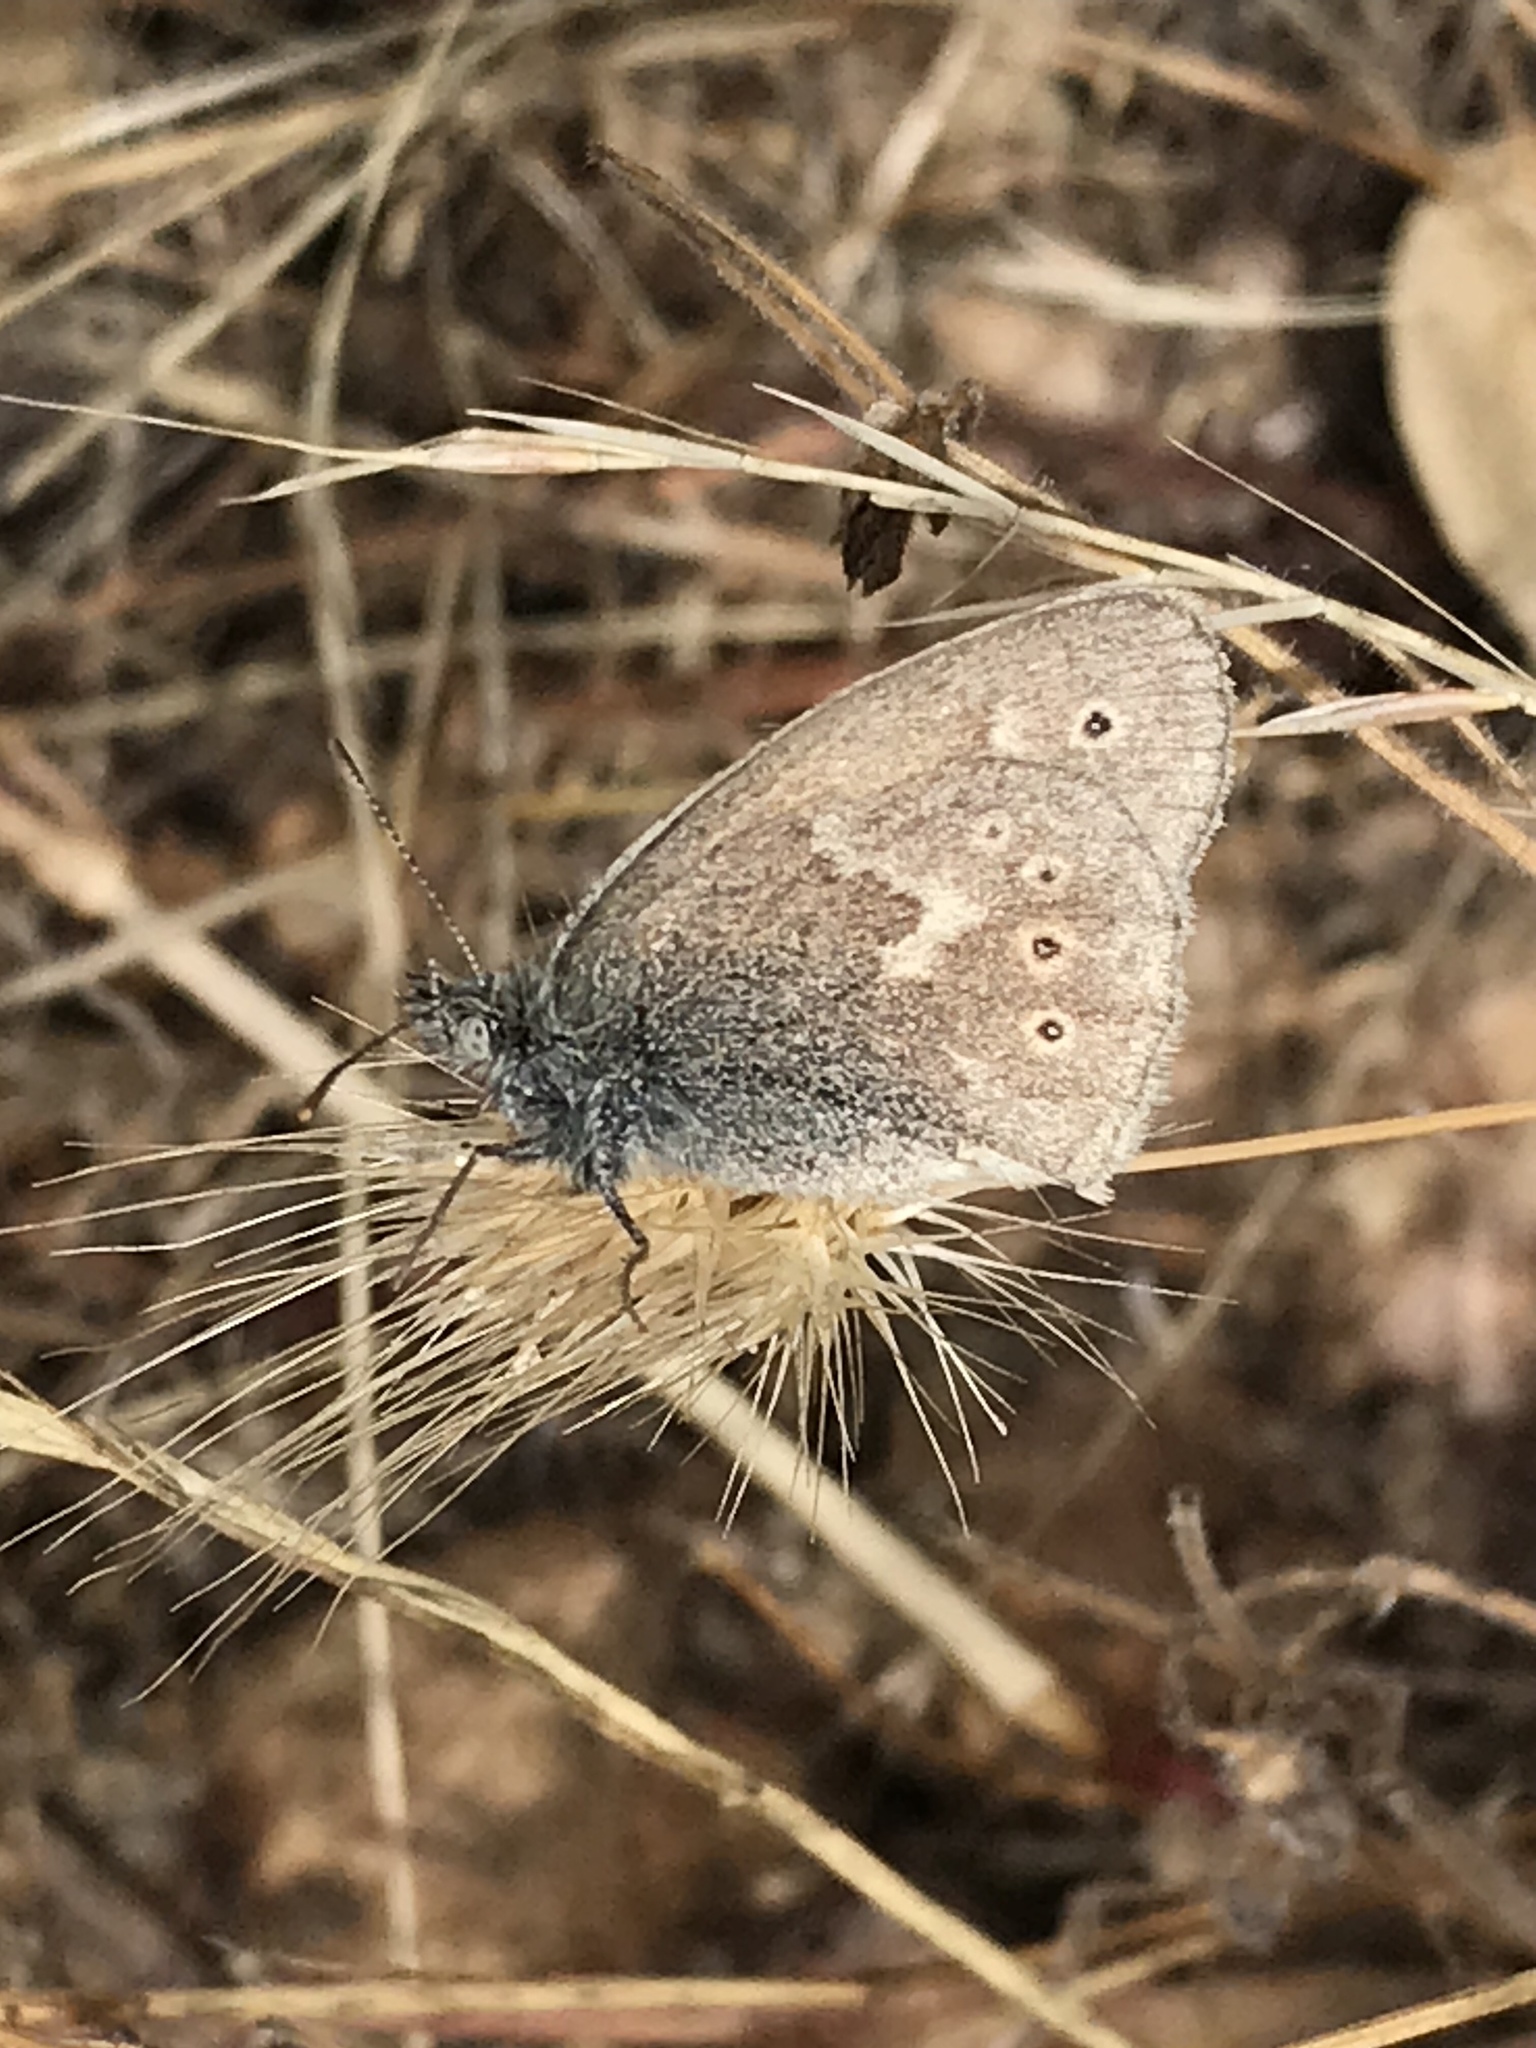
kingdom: Animalia
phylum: Arthropoda
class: Insecta
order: Lepidoptera
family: Nymphalidae
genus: Coenonympha
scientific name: Coenonympha california
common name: Common ringlet
